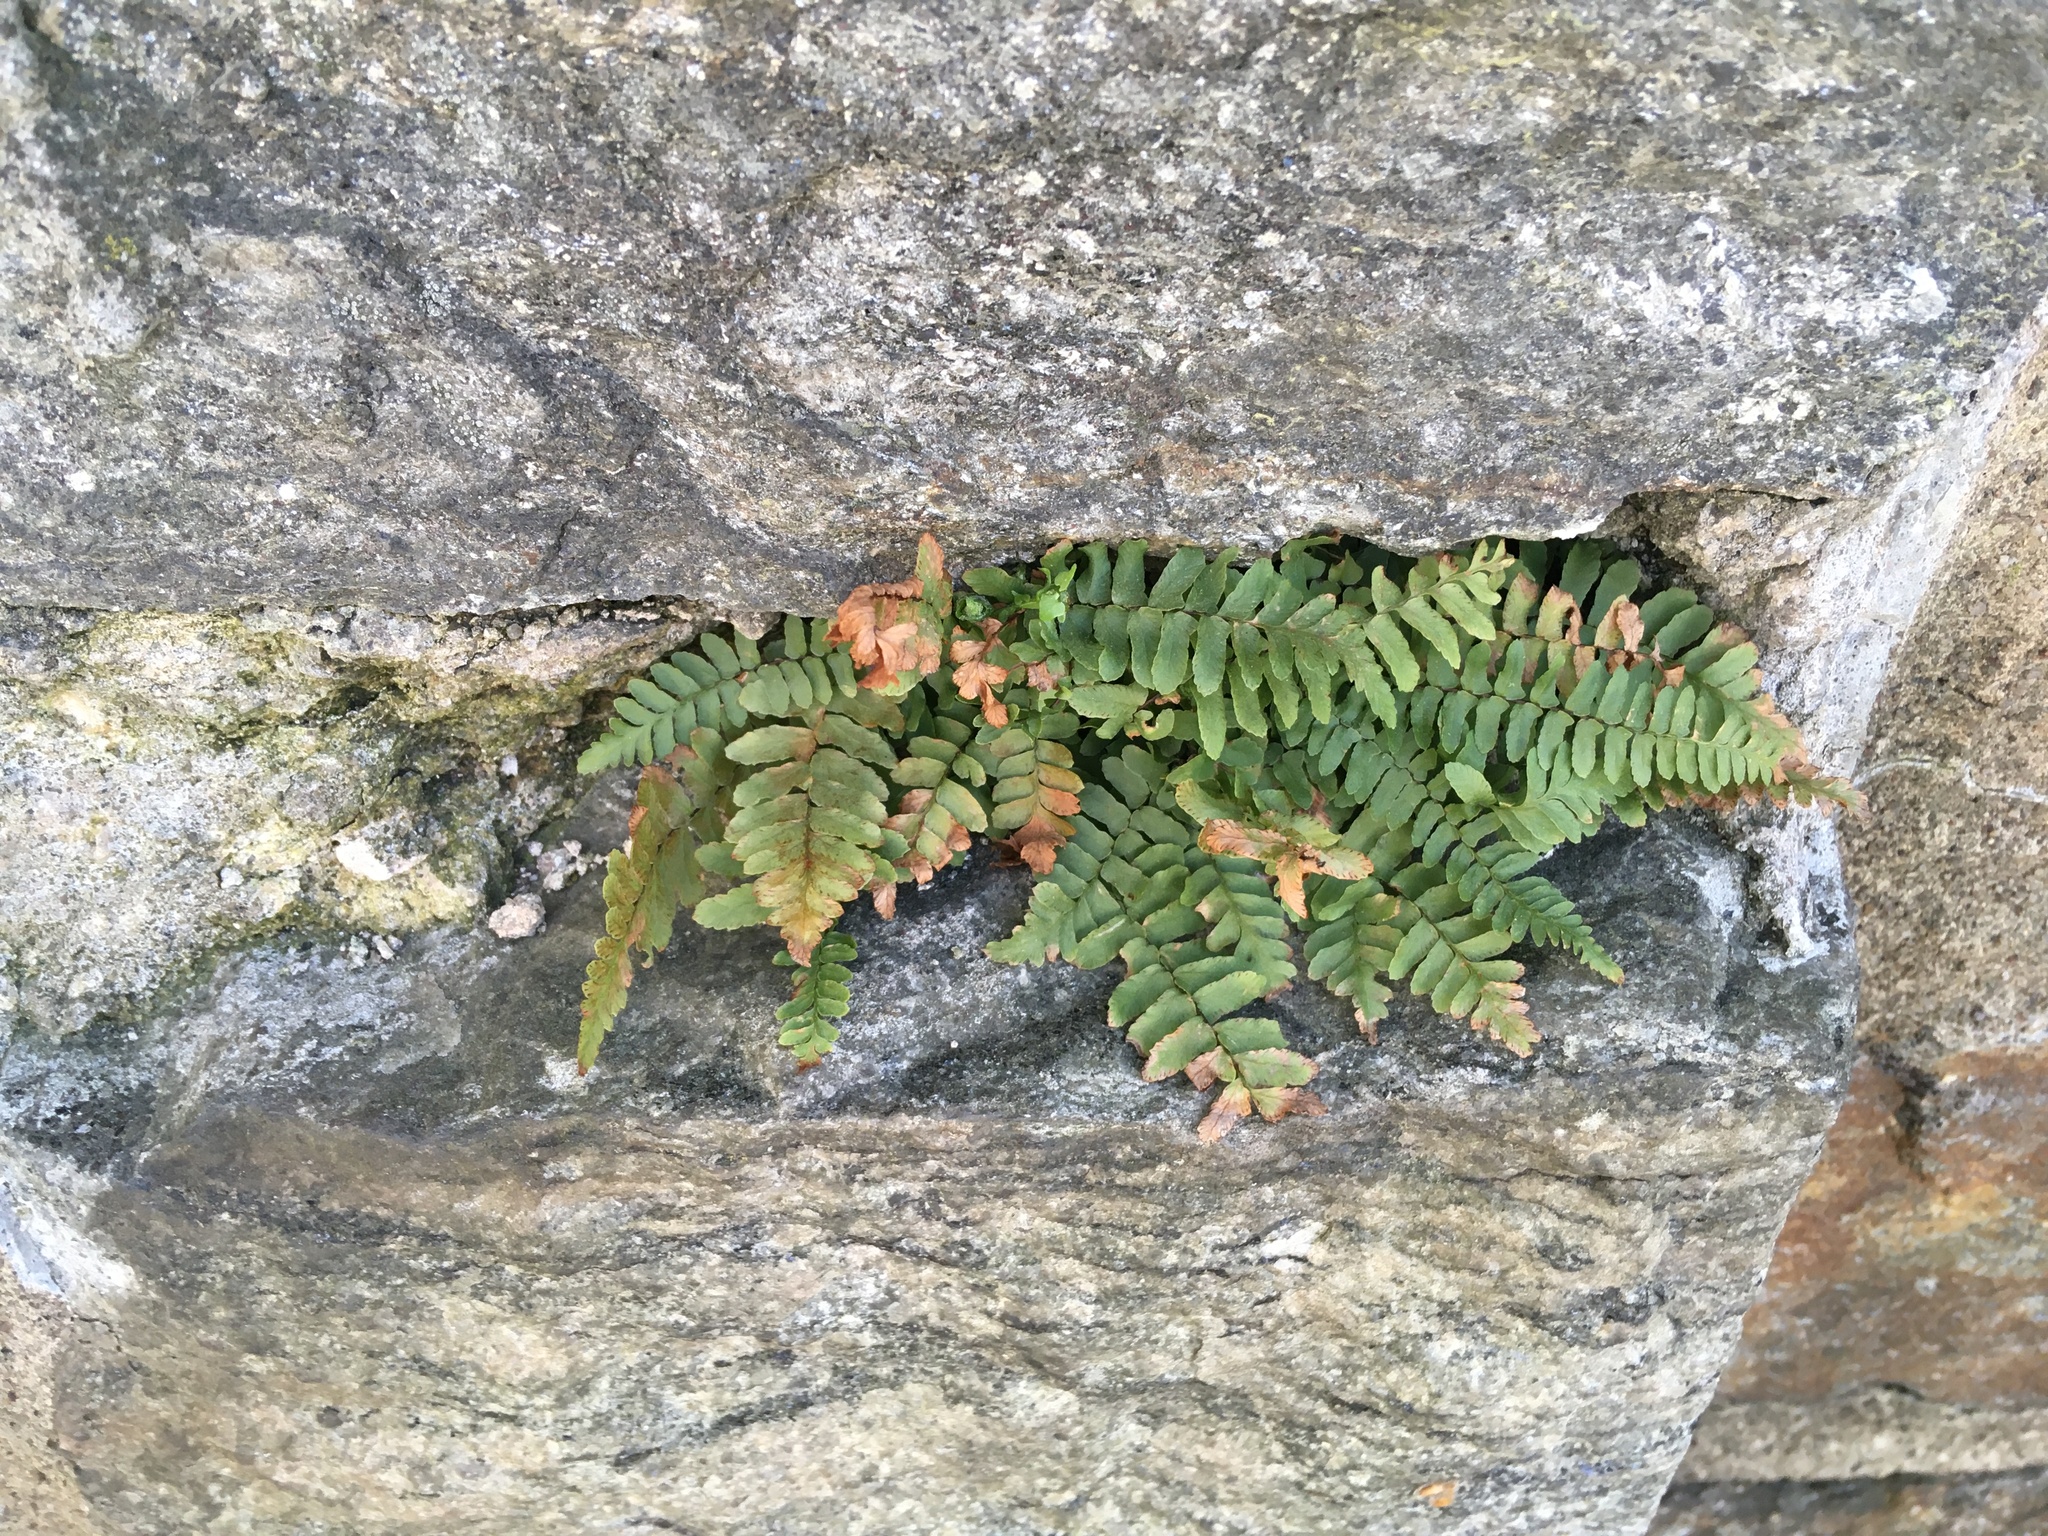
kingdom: Plantae
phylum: Tracheophyta
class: Polypodiopsida
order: Polypodiales
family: Aspleniaceae
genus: Asplenium
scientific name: Asplenium platyneuron
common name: Ebony spleenwort
